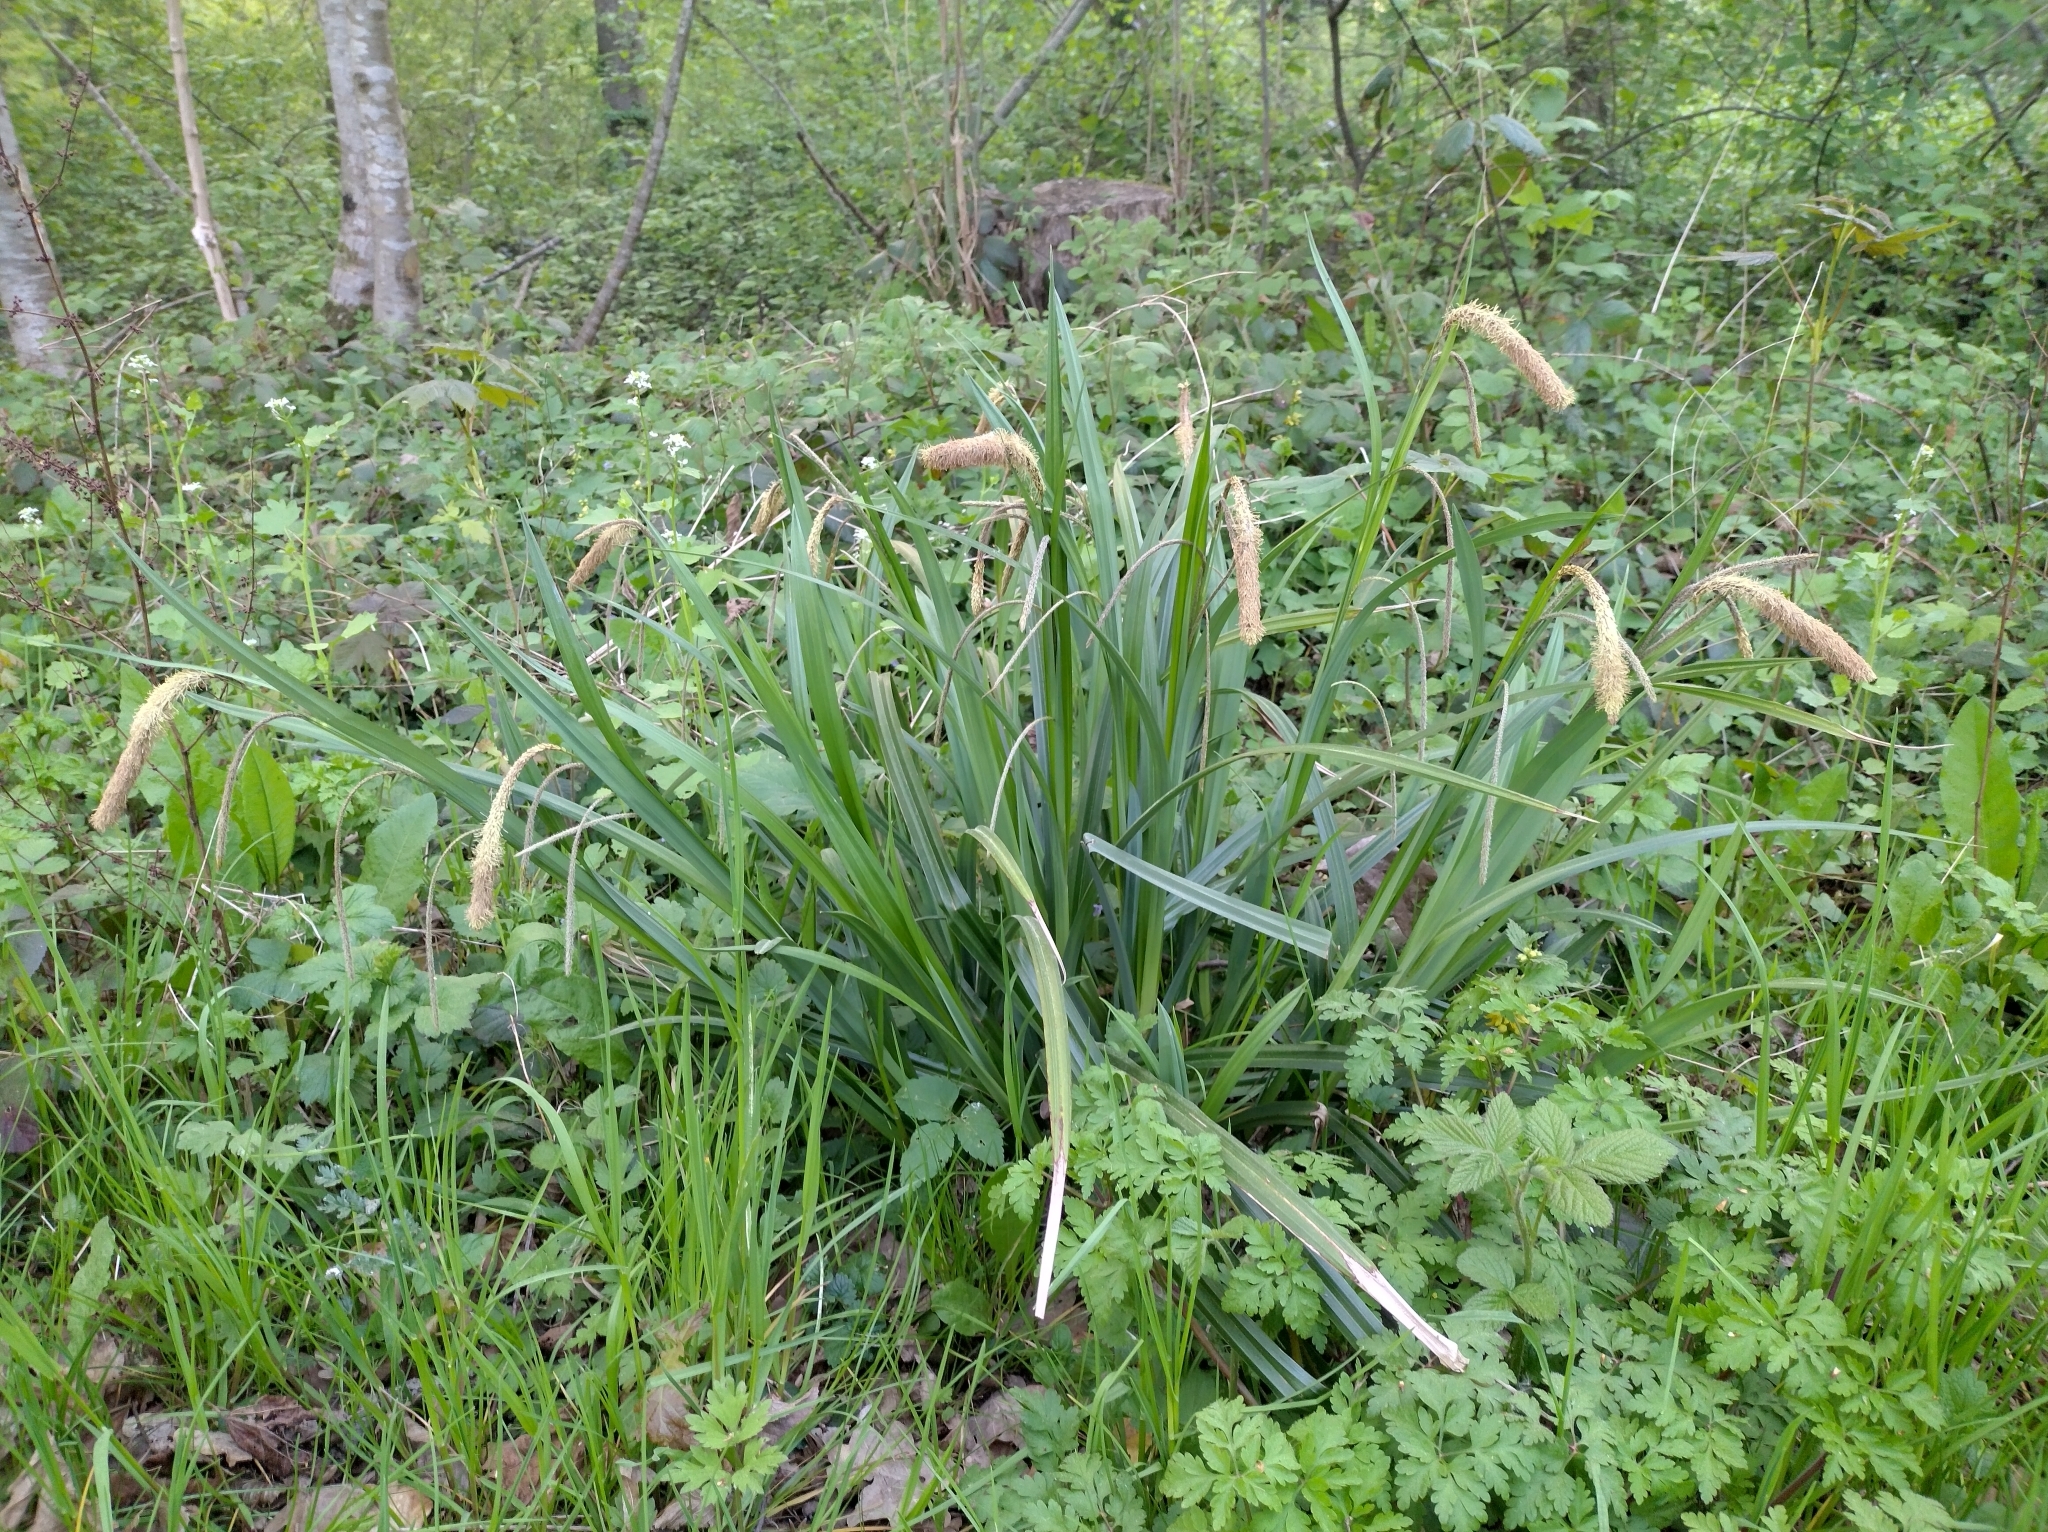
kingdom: Plantae
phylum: Tracheophyta
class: Liliopsida
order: Poales
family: Cyperaceae
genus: Carex
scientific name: Carex pendula
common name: Pendulous sedge
